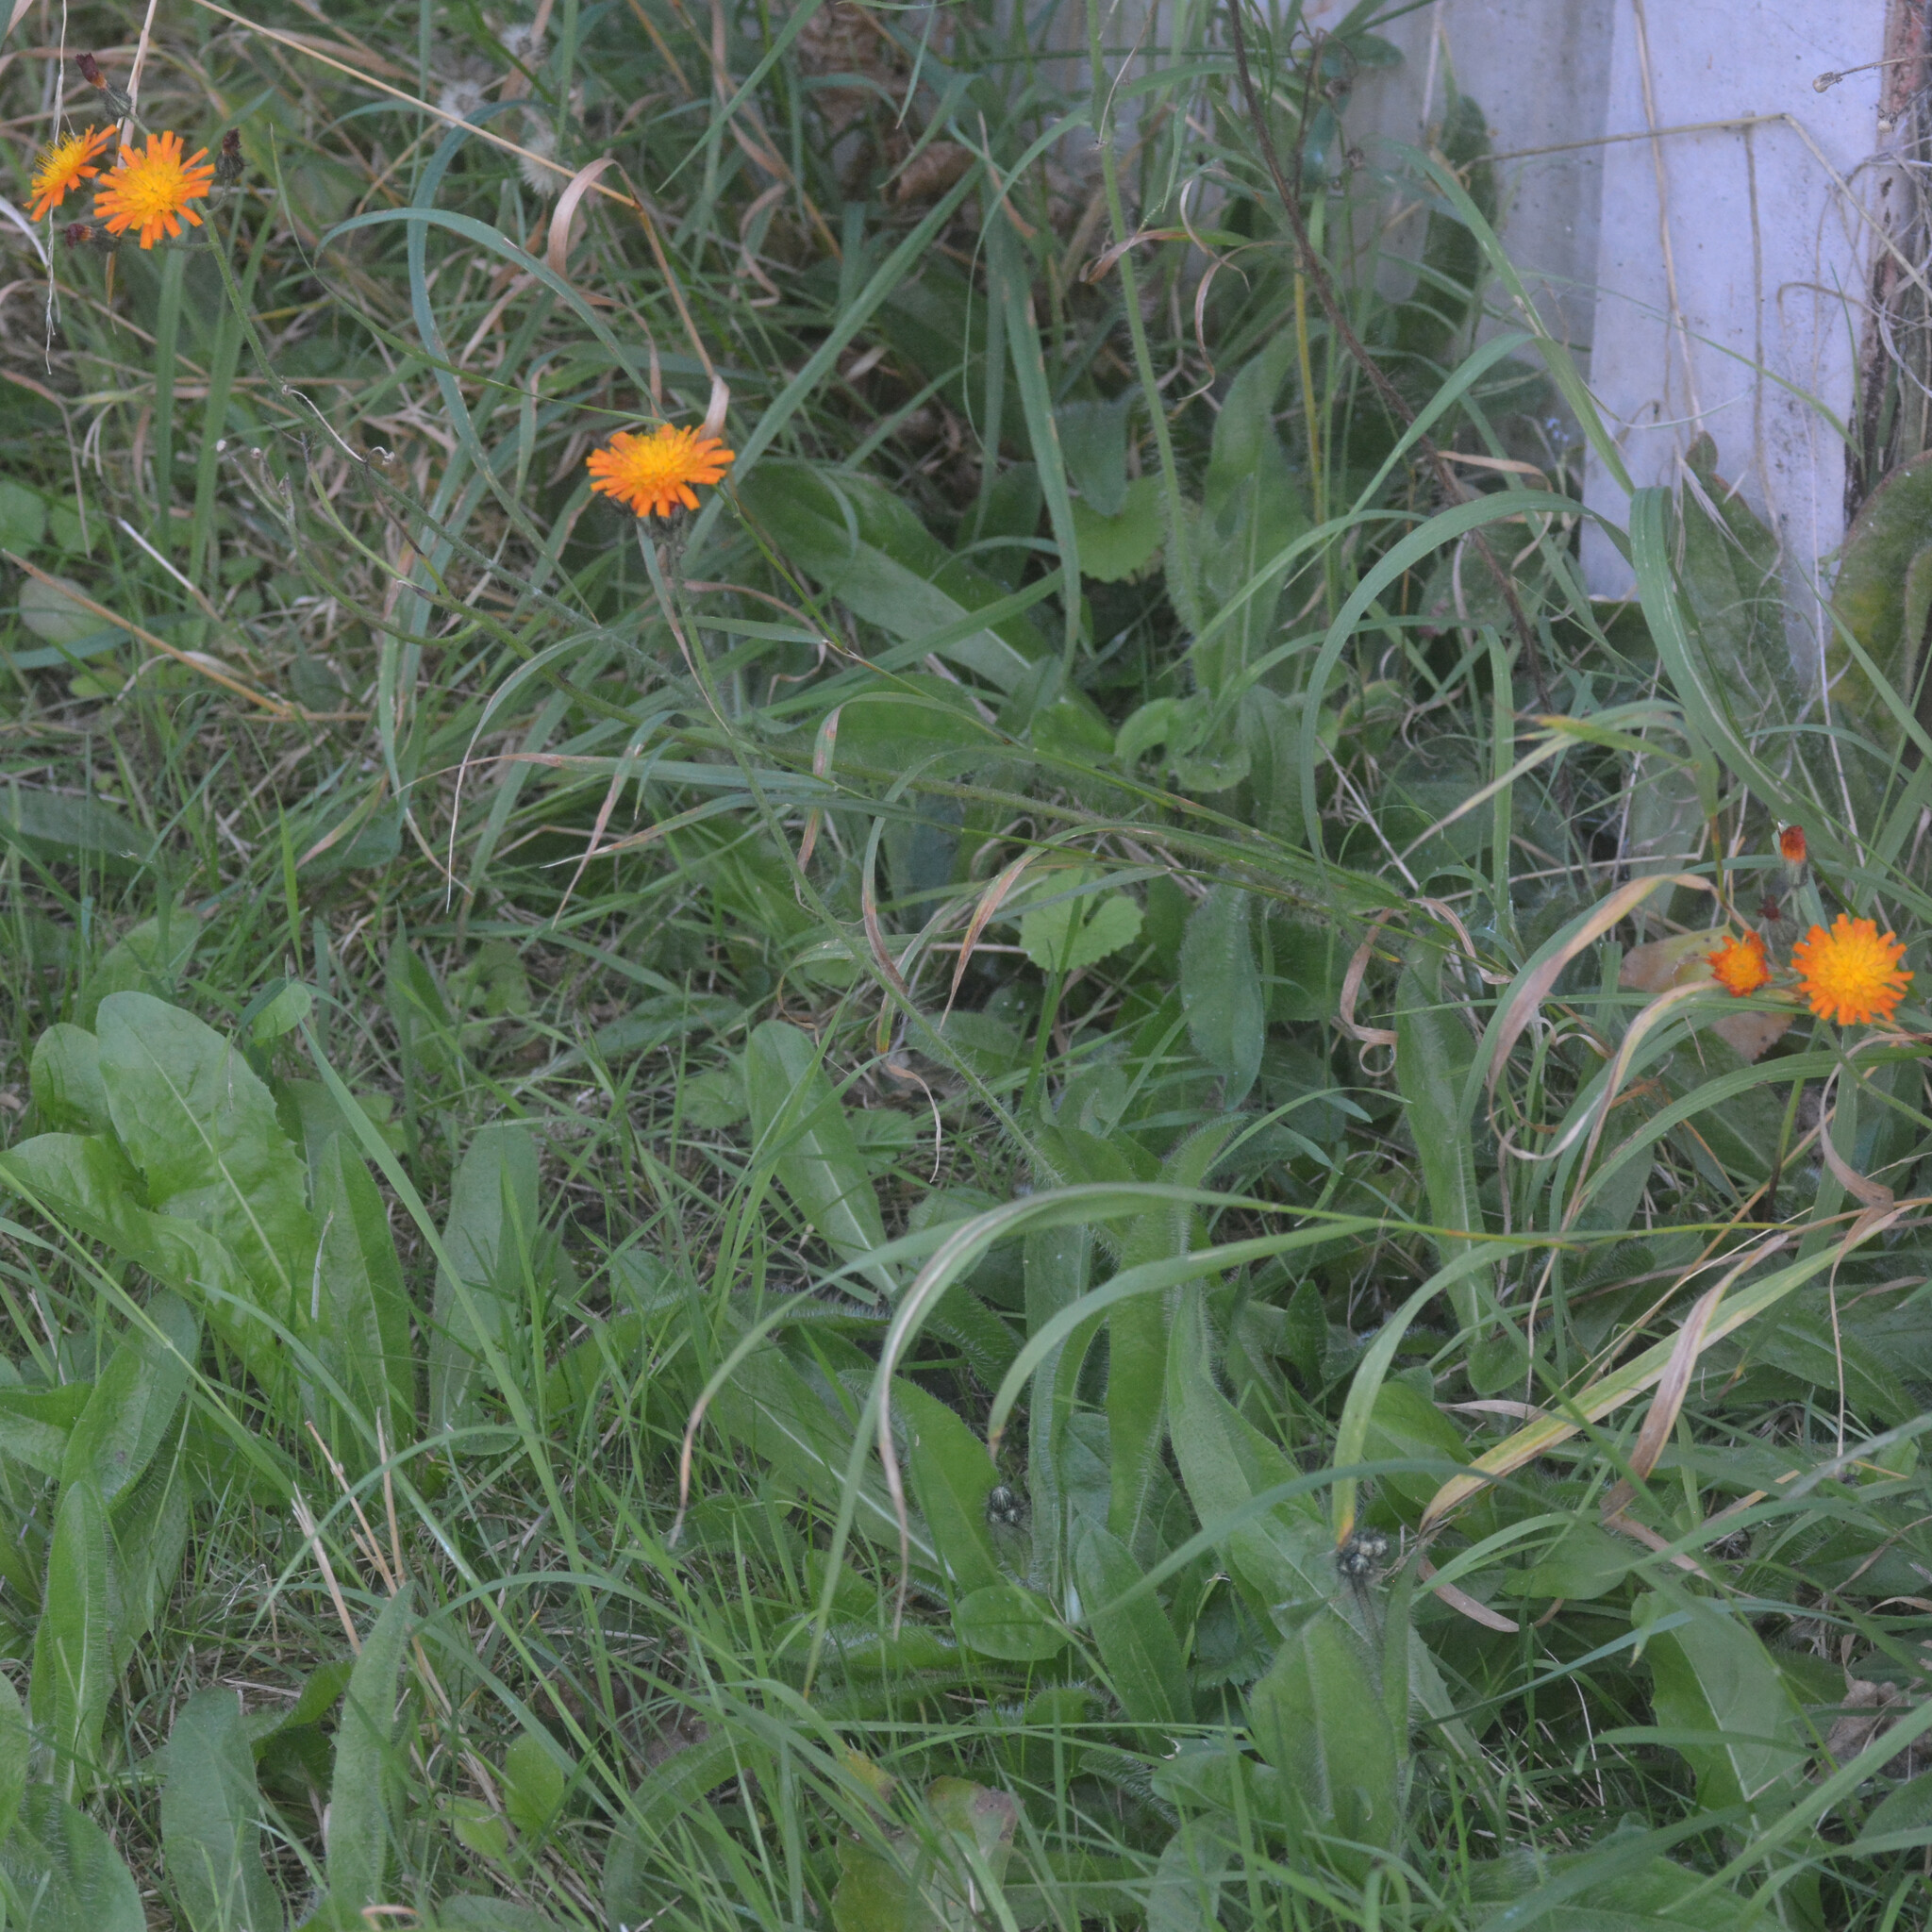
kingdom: Plantae
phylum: Tracheophyta
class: Magnoliopsida
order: Asterales
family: Asteraceae
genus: Pilosella
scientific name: Pilosella aurantiaca
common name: Fox-and-cubs
